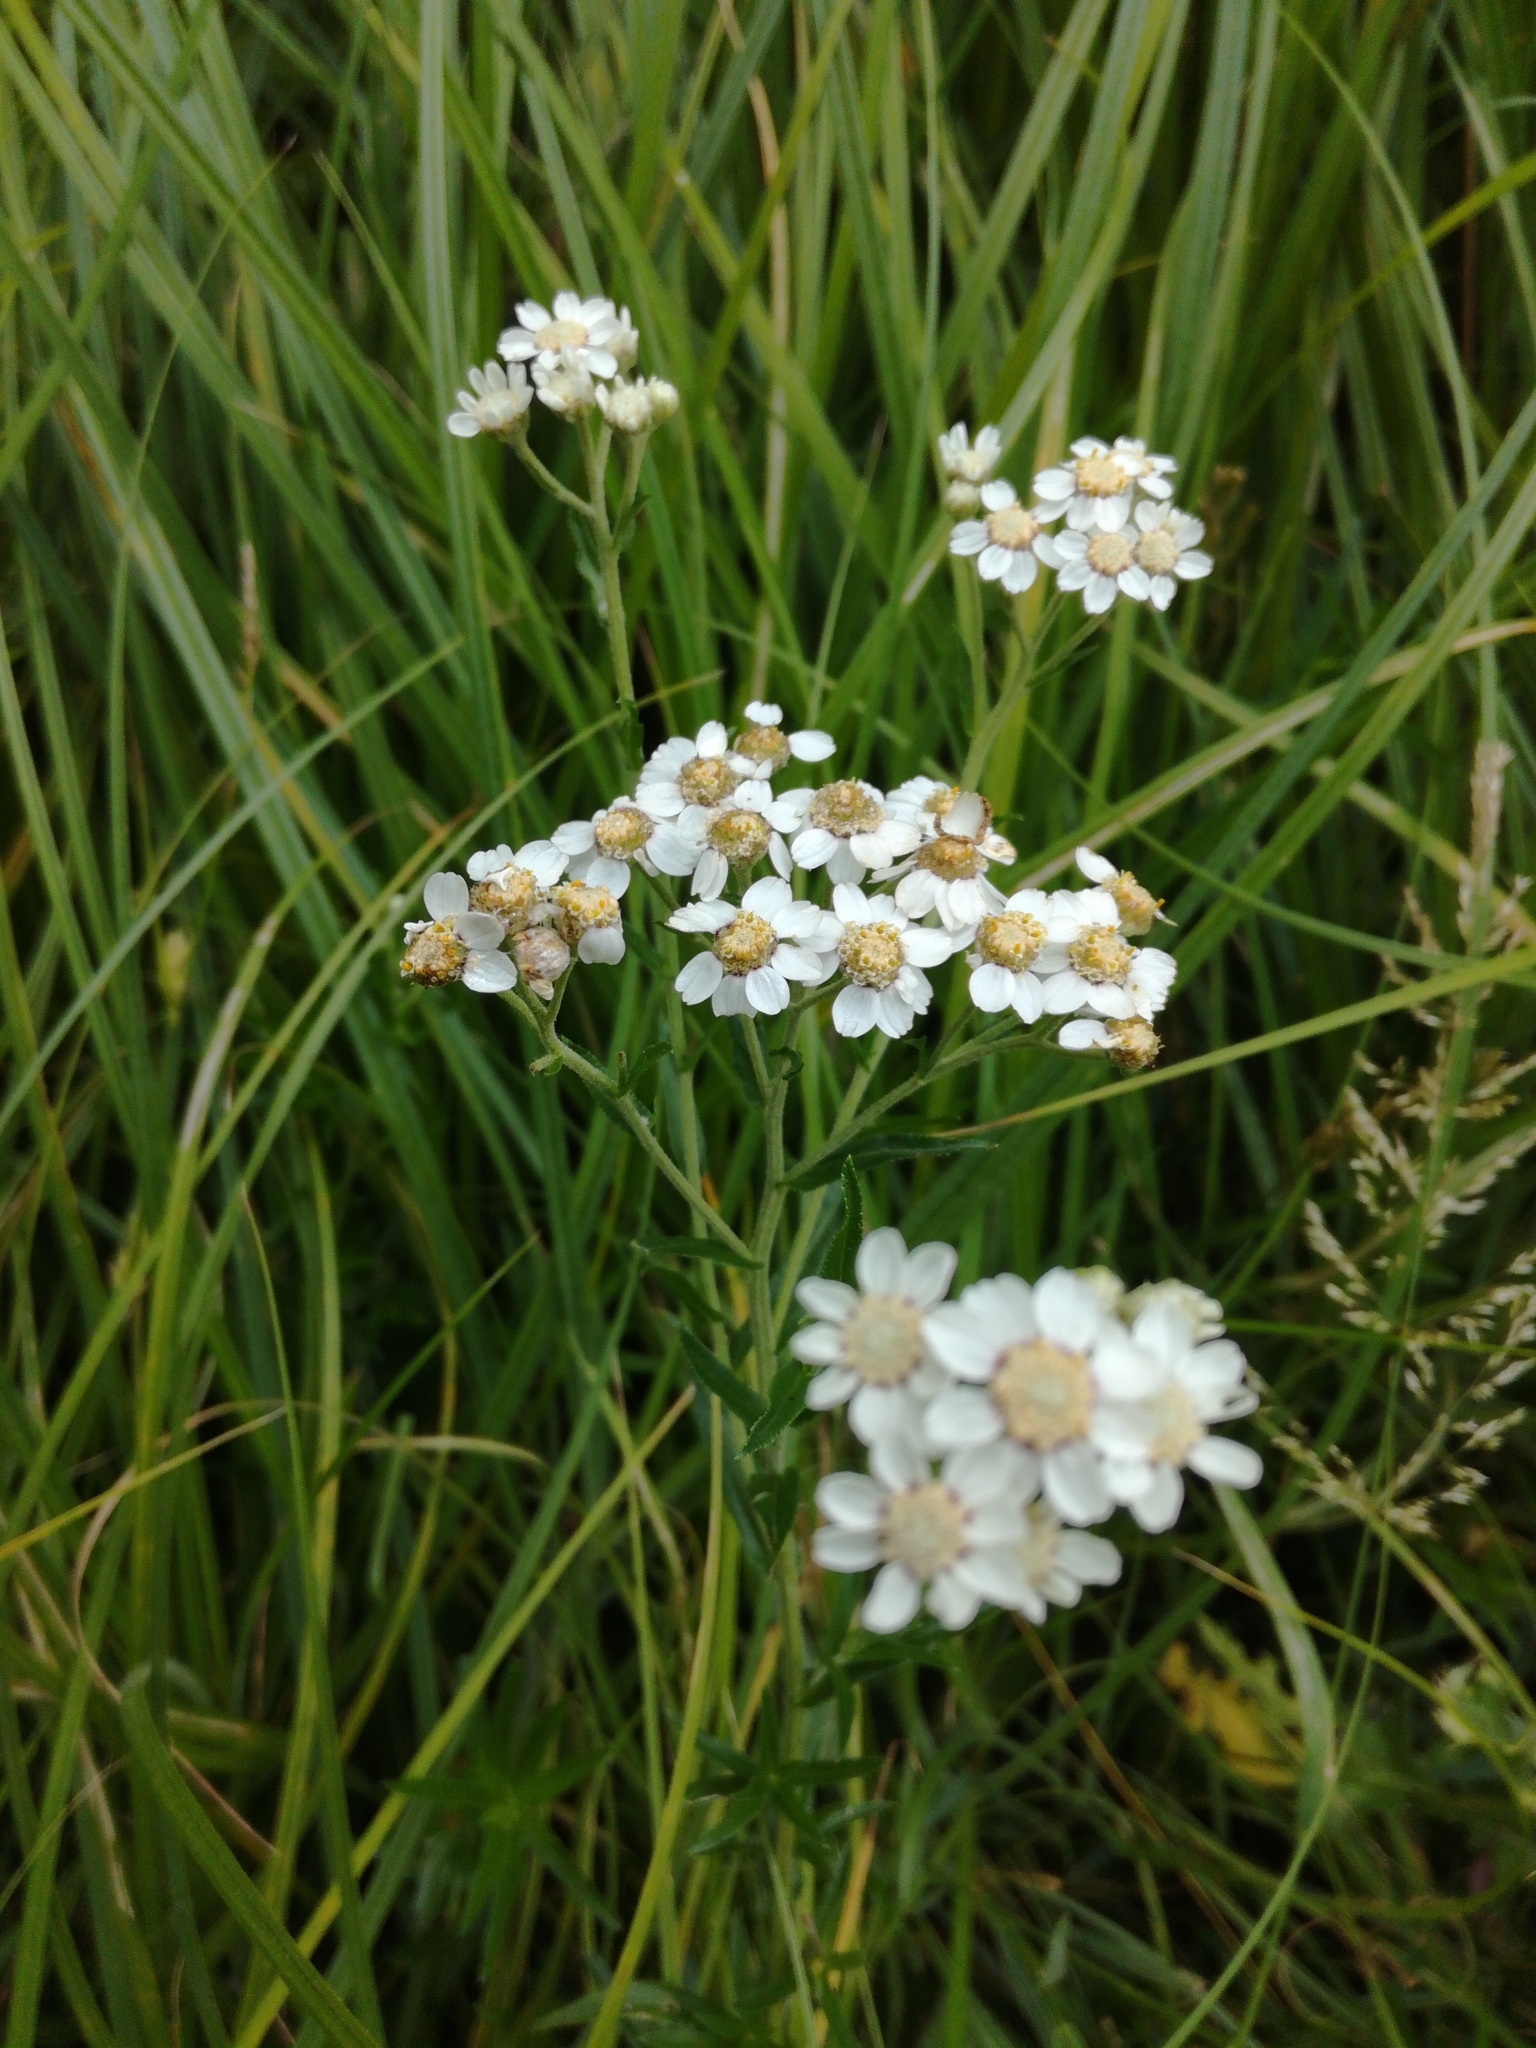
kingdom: Plantae
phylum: Tracheophyta
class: Magnoliopsida
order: Asterales
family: Asteraceae
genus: Achillea
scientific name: Achillea ptarmica
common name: Sneezeweed
